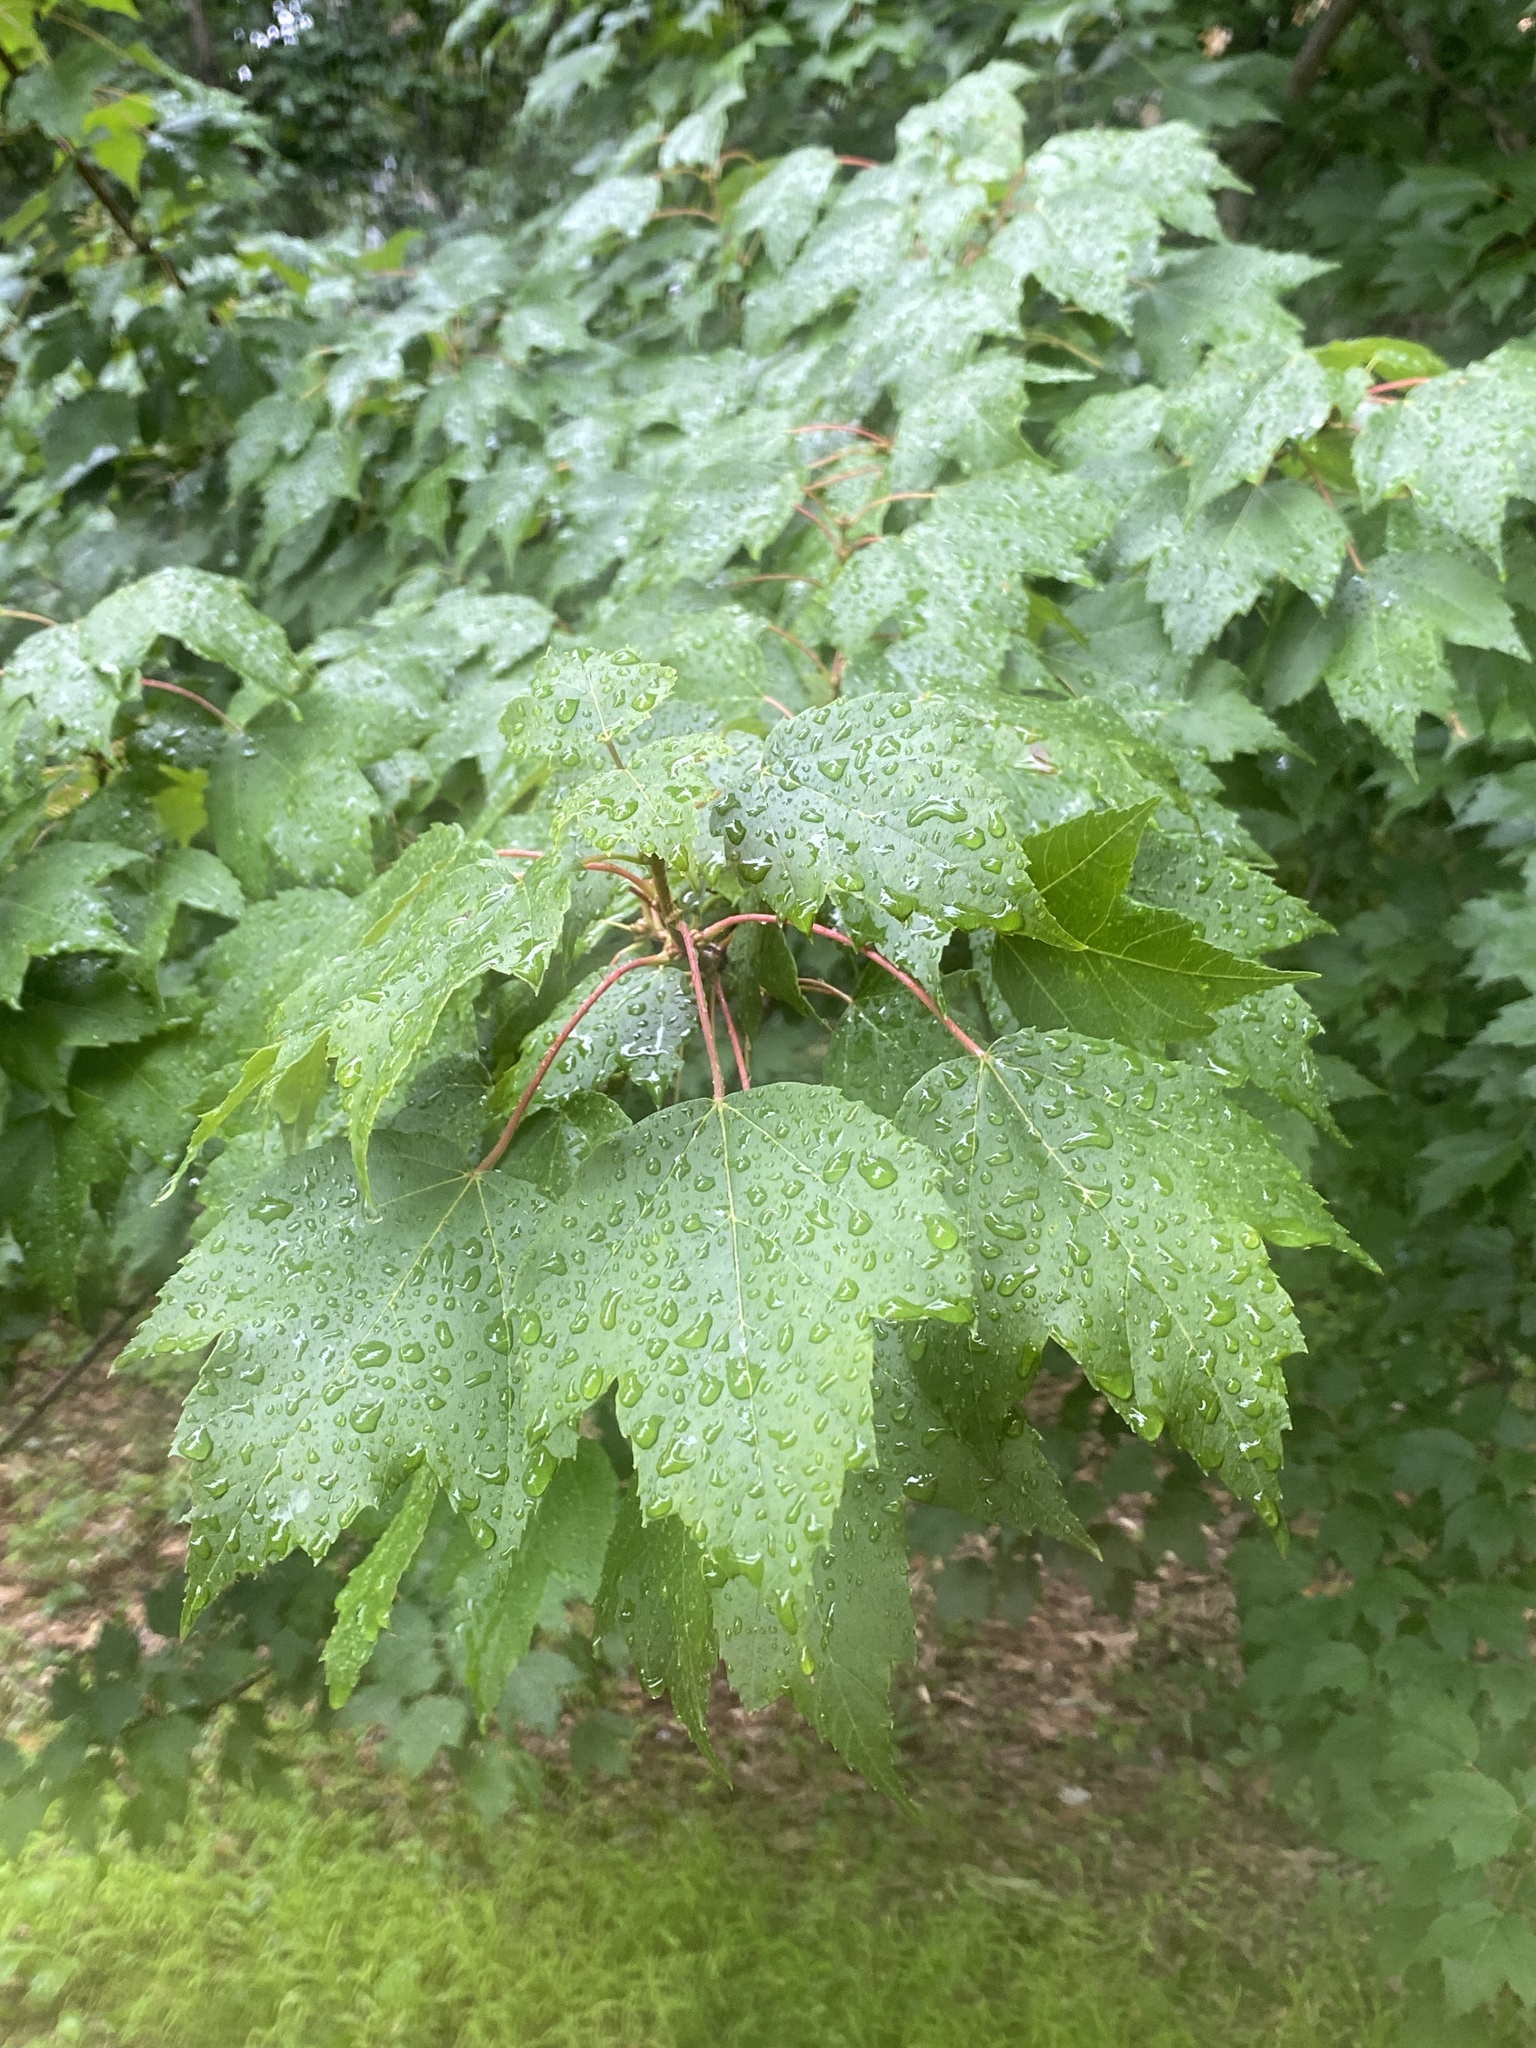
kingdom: Plantae
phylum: Tracheophyta
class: Magnoliopsida
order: Sapindales
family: Sapindaceae
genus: Acer
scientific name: Acer rubrum
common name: Red maple
